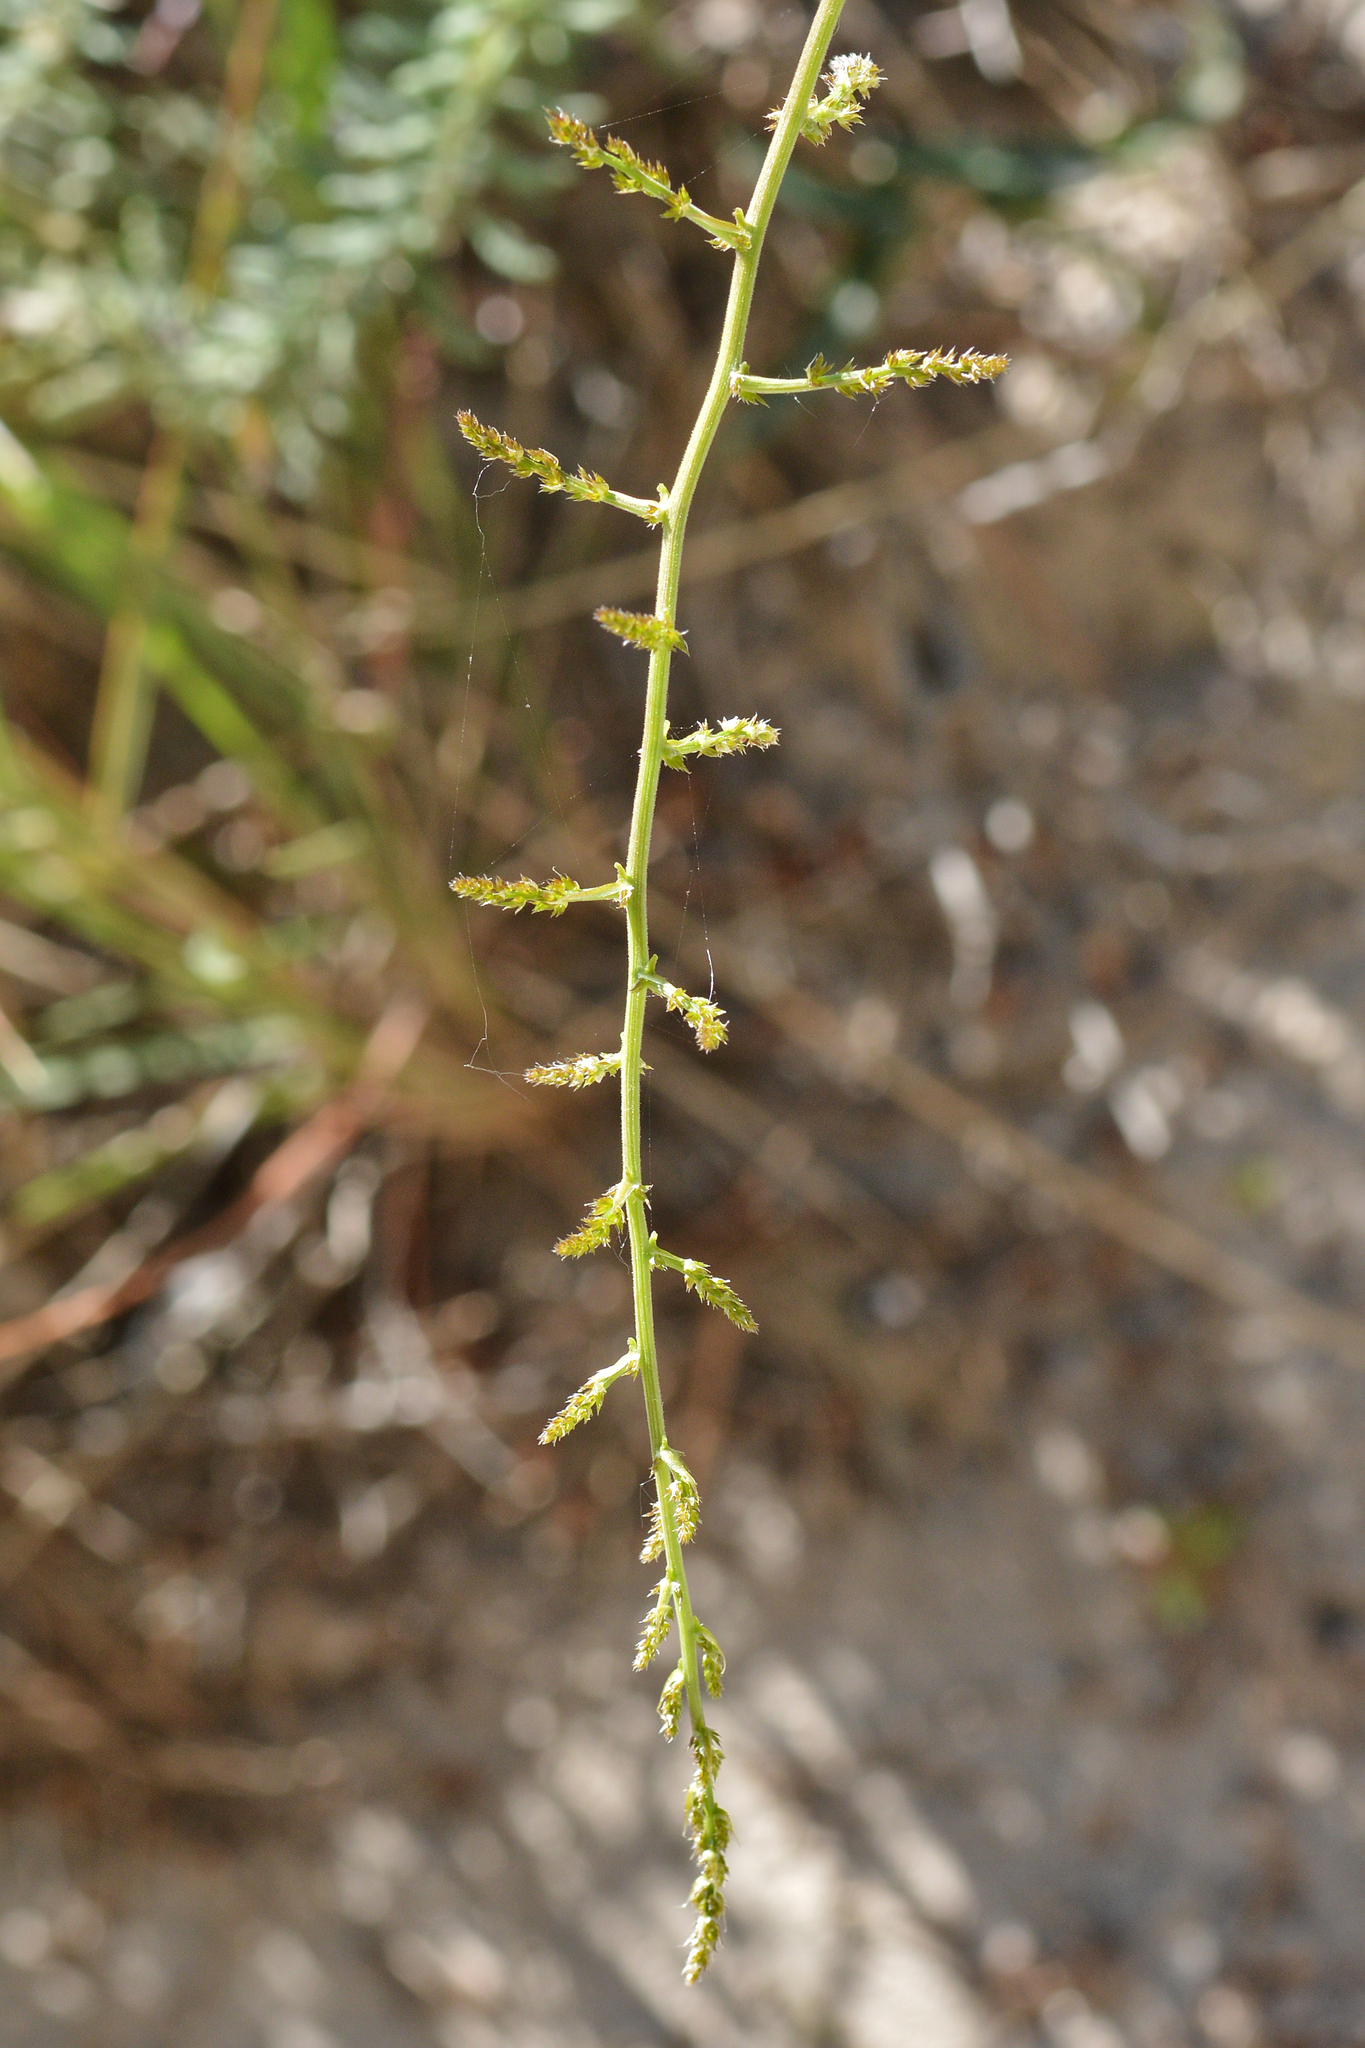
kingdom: Plantae
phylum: Tracheophyta
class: Liliopsida
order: Asparagales
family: Asparagaceae
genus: Asparagus
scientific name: Asparagus acutifolius
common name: Wild asparagus
